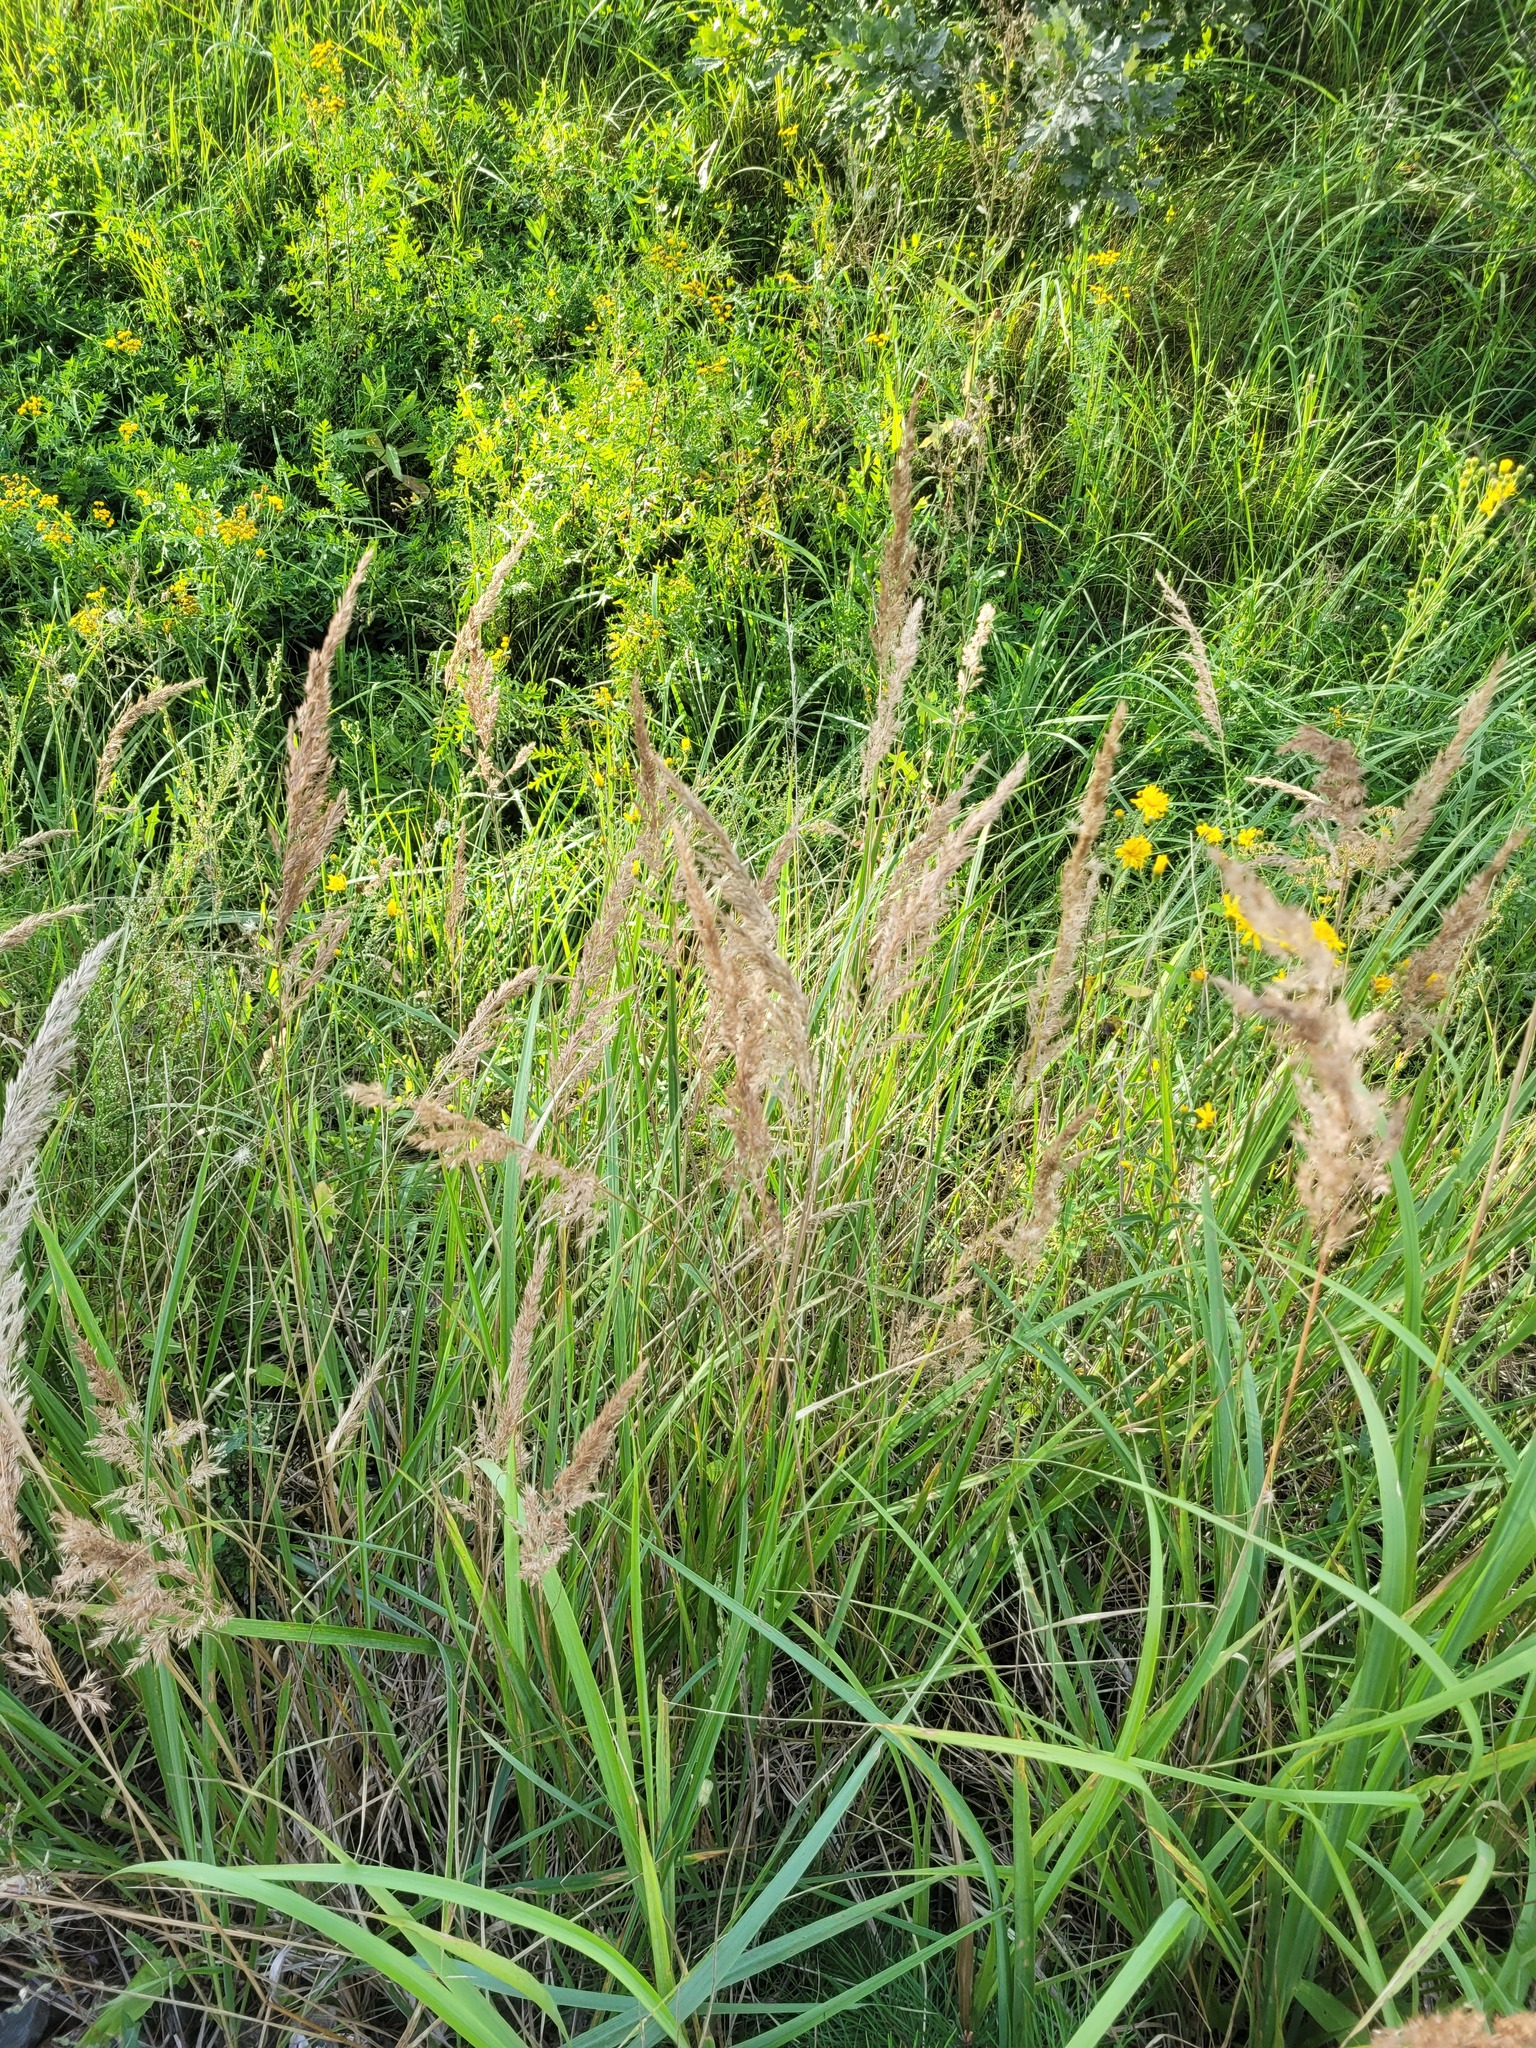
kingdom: Plantae
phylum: Tracheophyta
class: Liliopsida
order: Poales
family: Poaceae
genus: Calamagrostis
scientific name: Calamagrostis epigejos
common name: Wood small-reed
